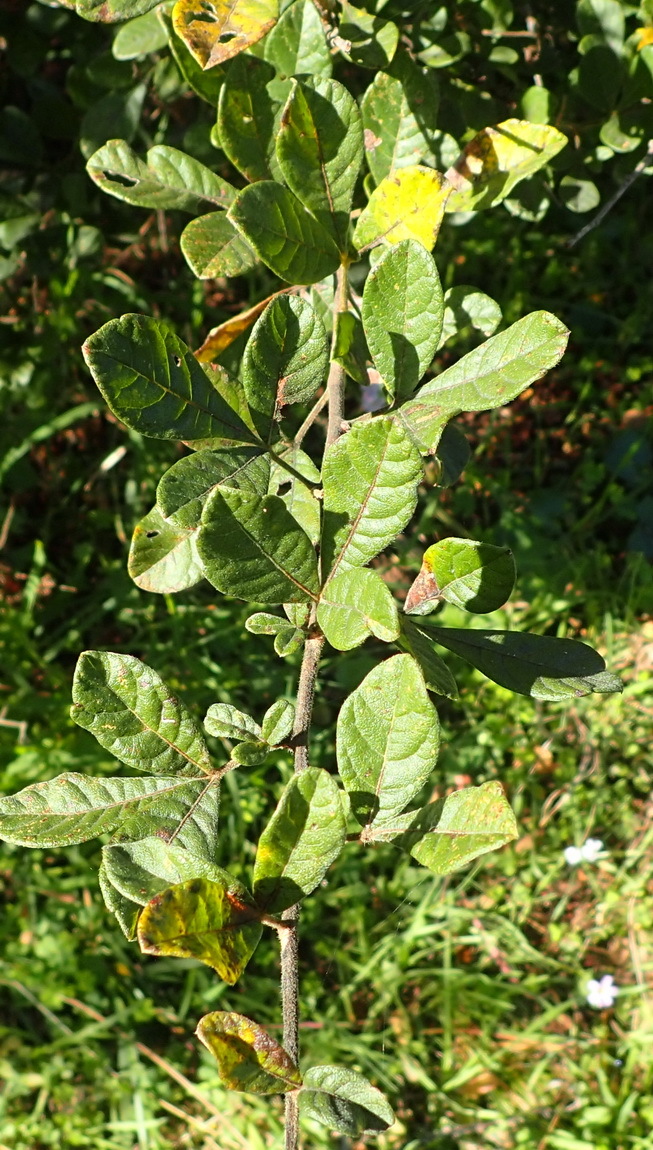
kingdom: Plantae
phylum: Tracheophyta
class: Magnoliopsida
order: Sapindales
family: Anacardiaceae
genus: Searsia
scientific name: Searsia pyroides
